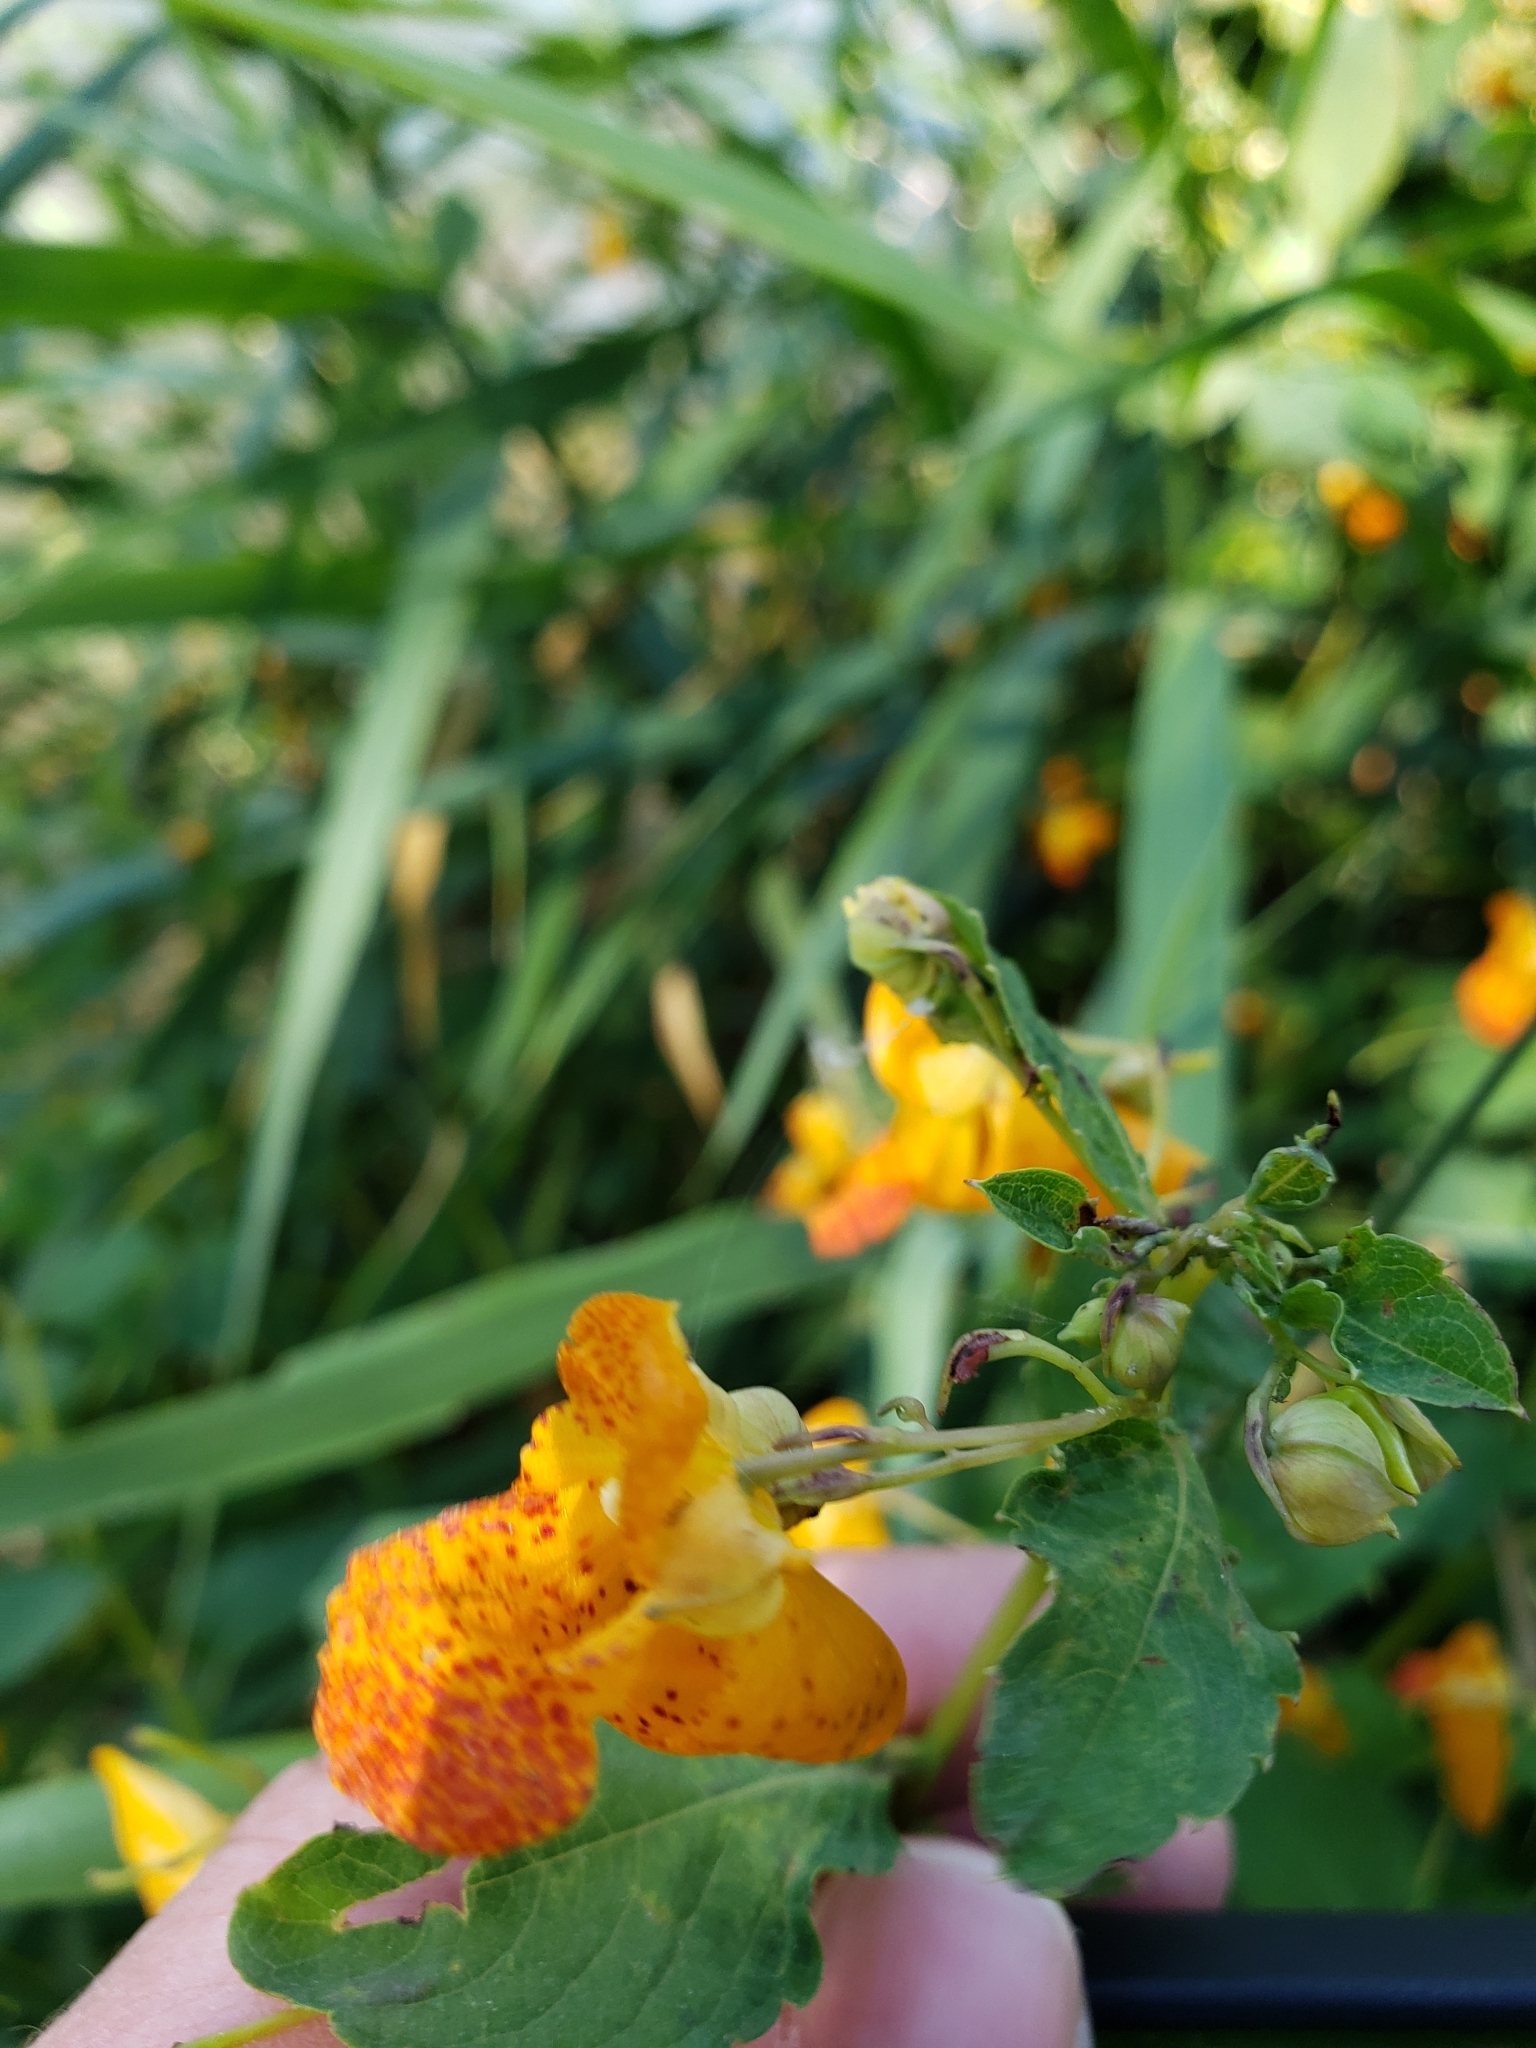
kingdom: Plantae
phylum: Tracheophyta
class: Magnoliopsida
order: Ericales
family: Balsaminaceae
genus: Impatiens
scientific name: Impatiens capensis
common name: Orange balsam
